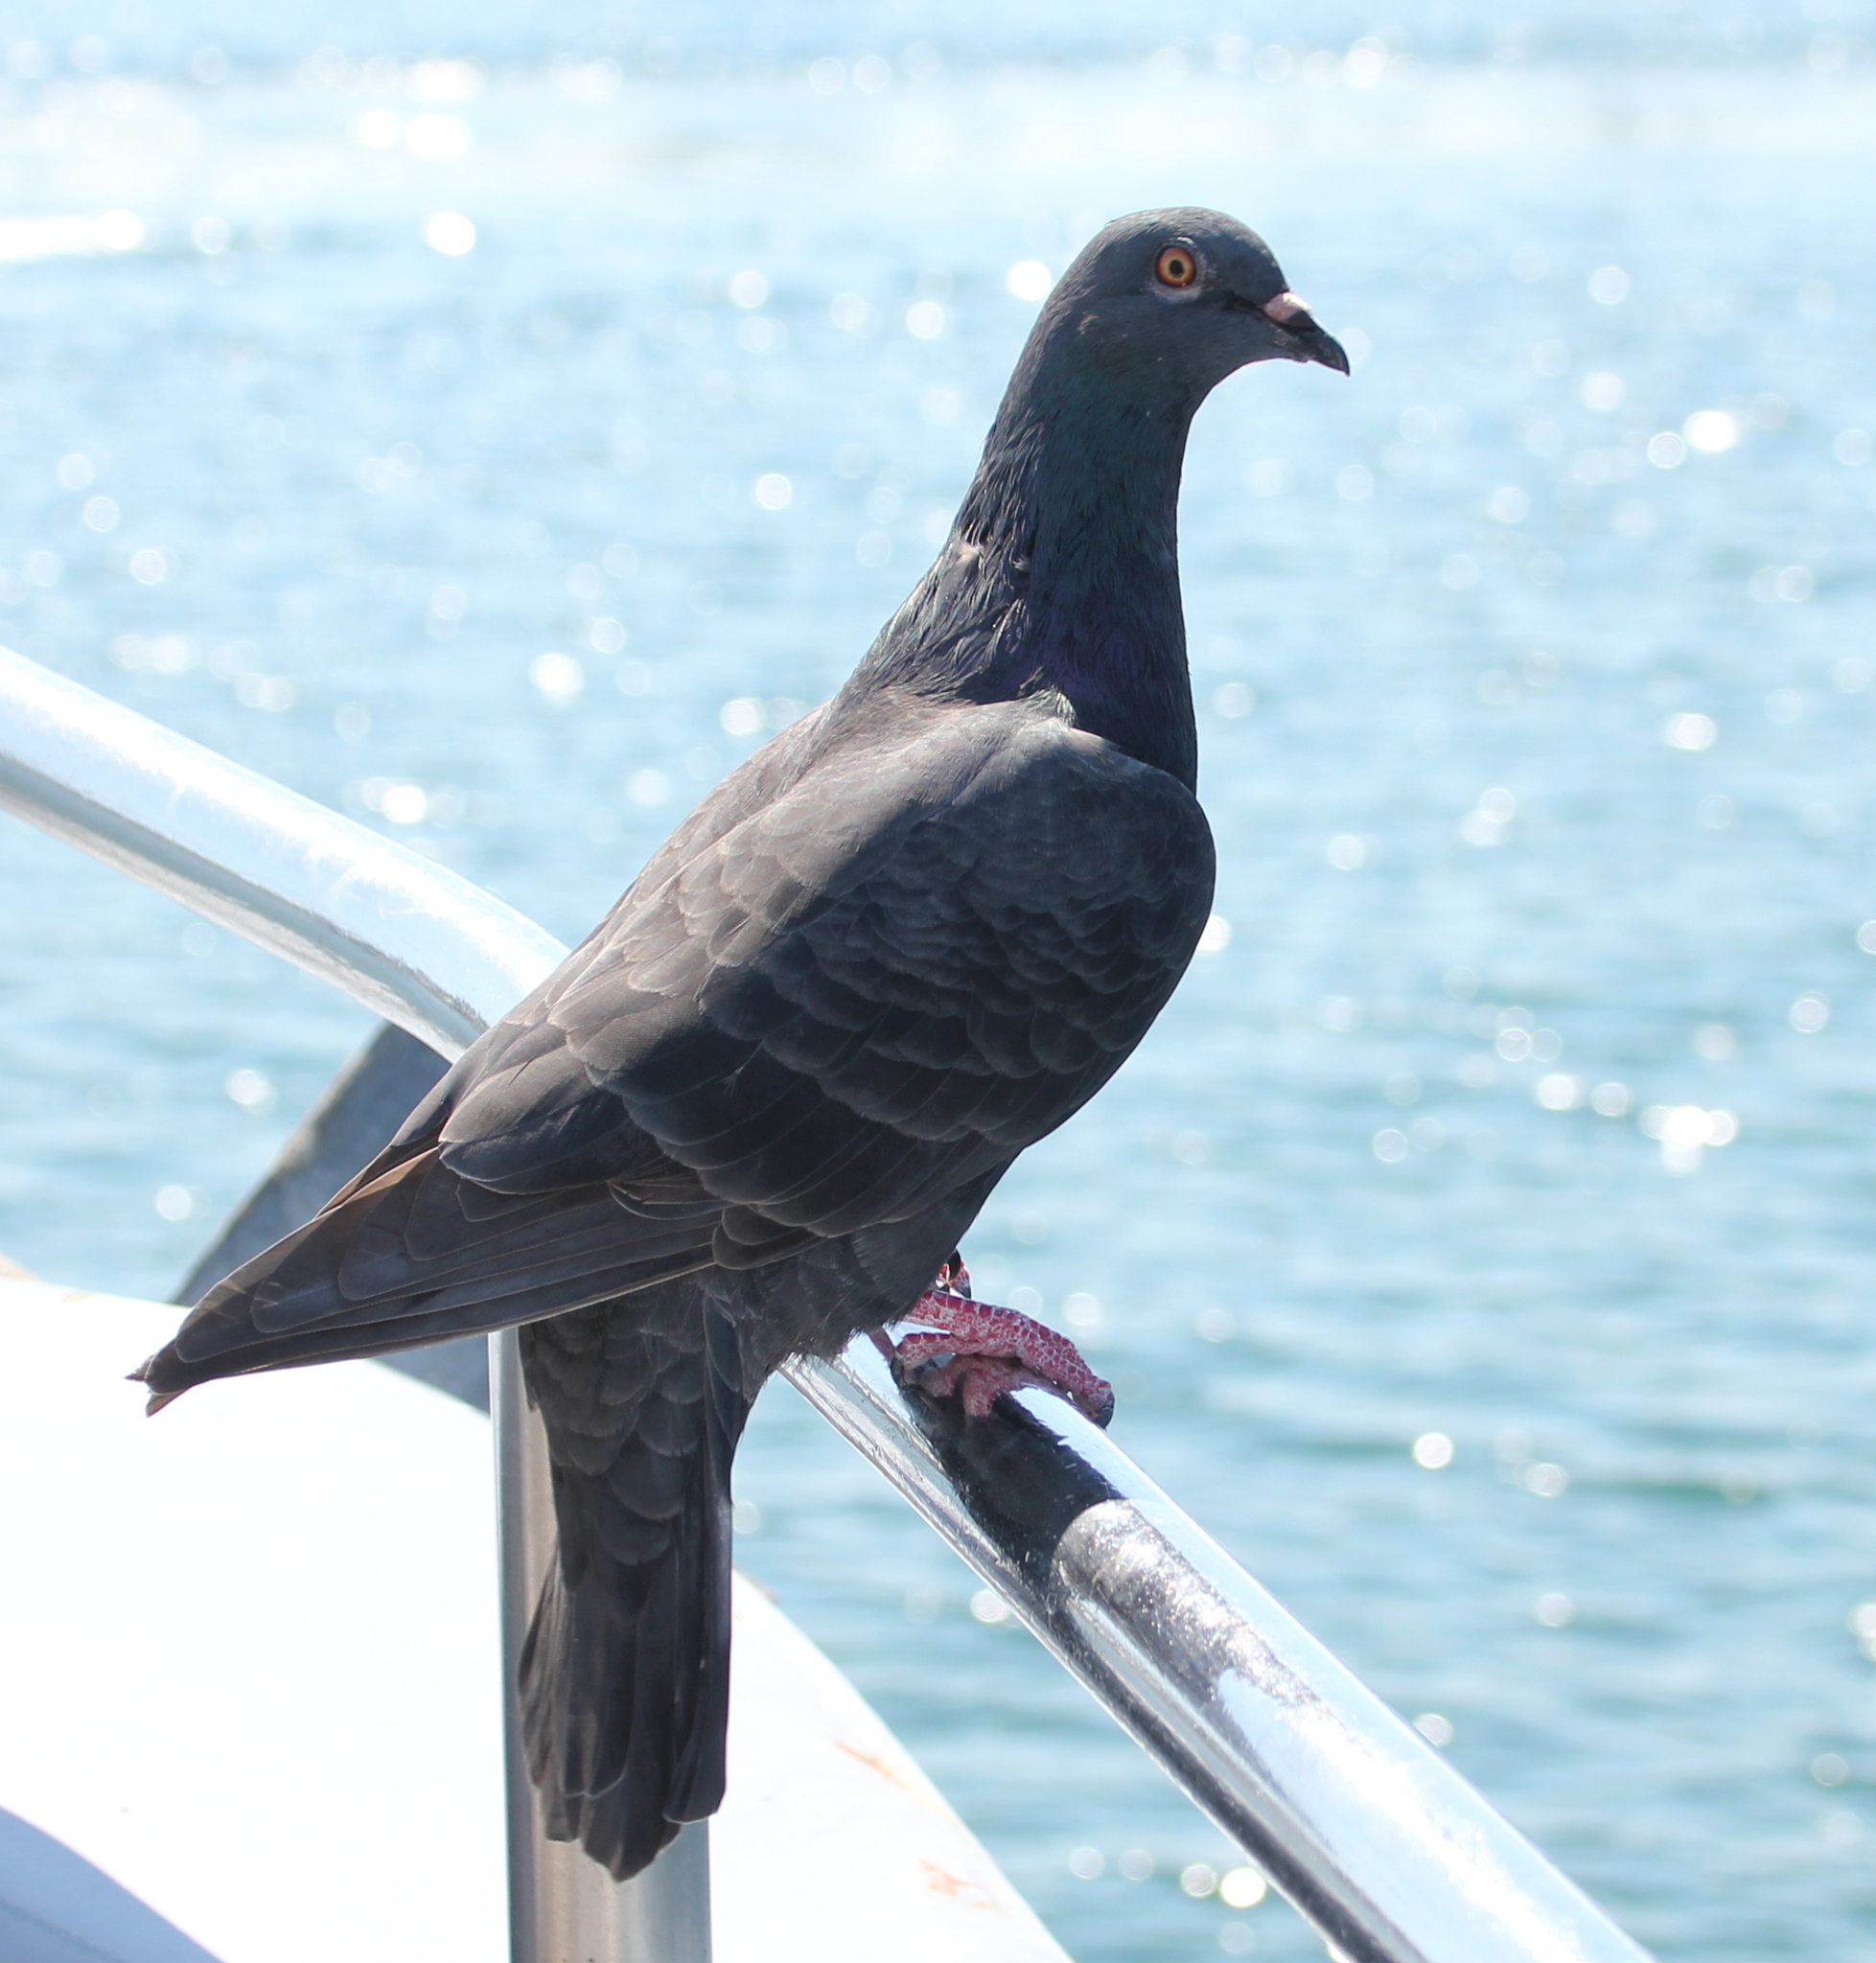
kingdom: Animalia
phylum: Chordata
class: Aves
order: Columbiformes
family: Columbidae
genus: Columba
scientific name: Columba livia
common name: Rock pigeon
